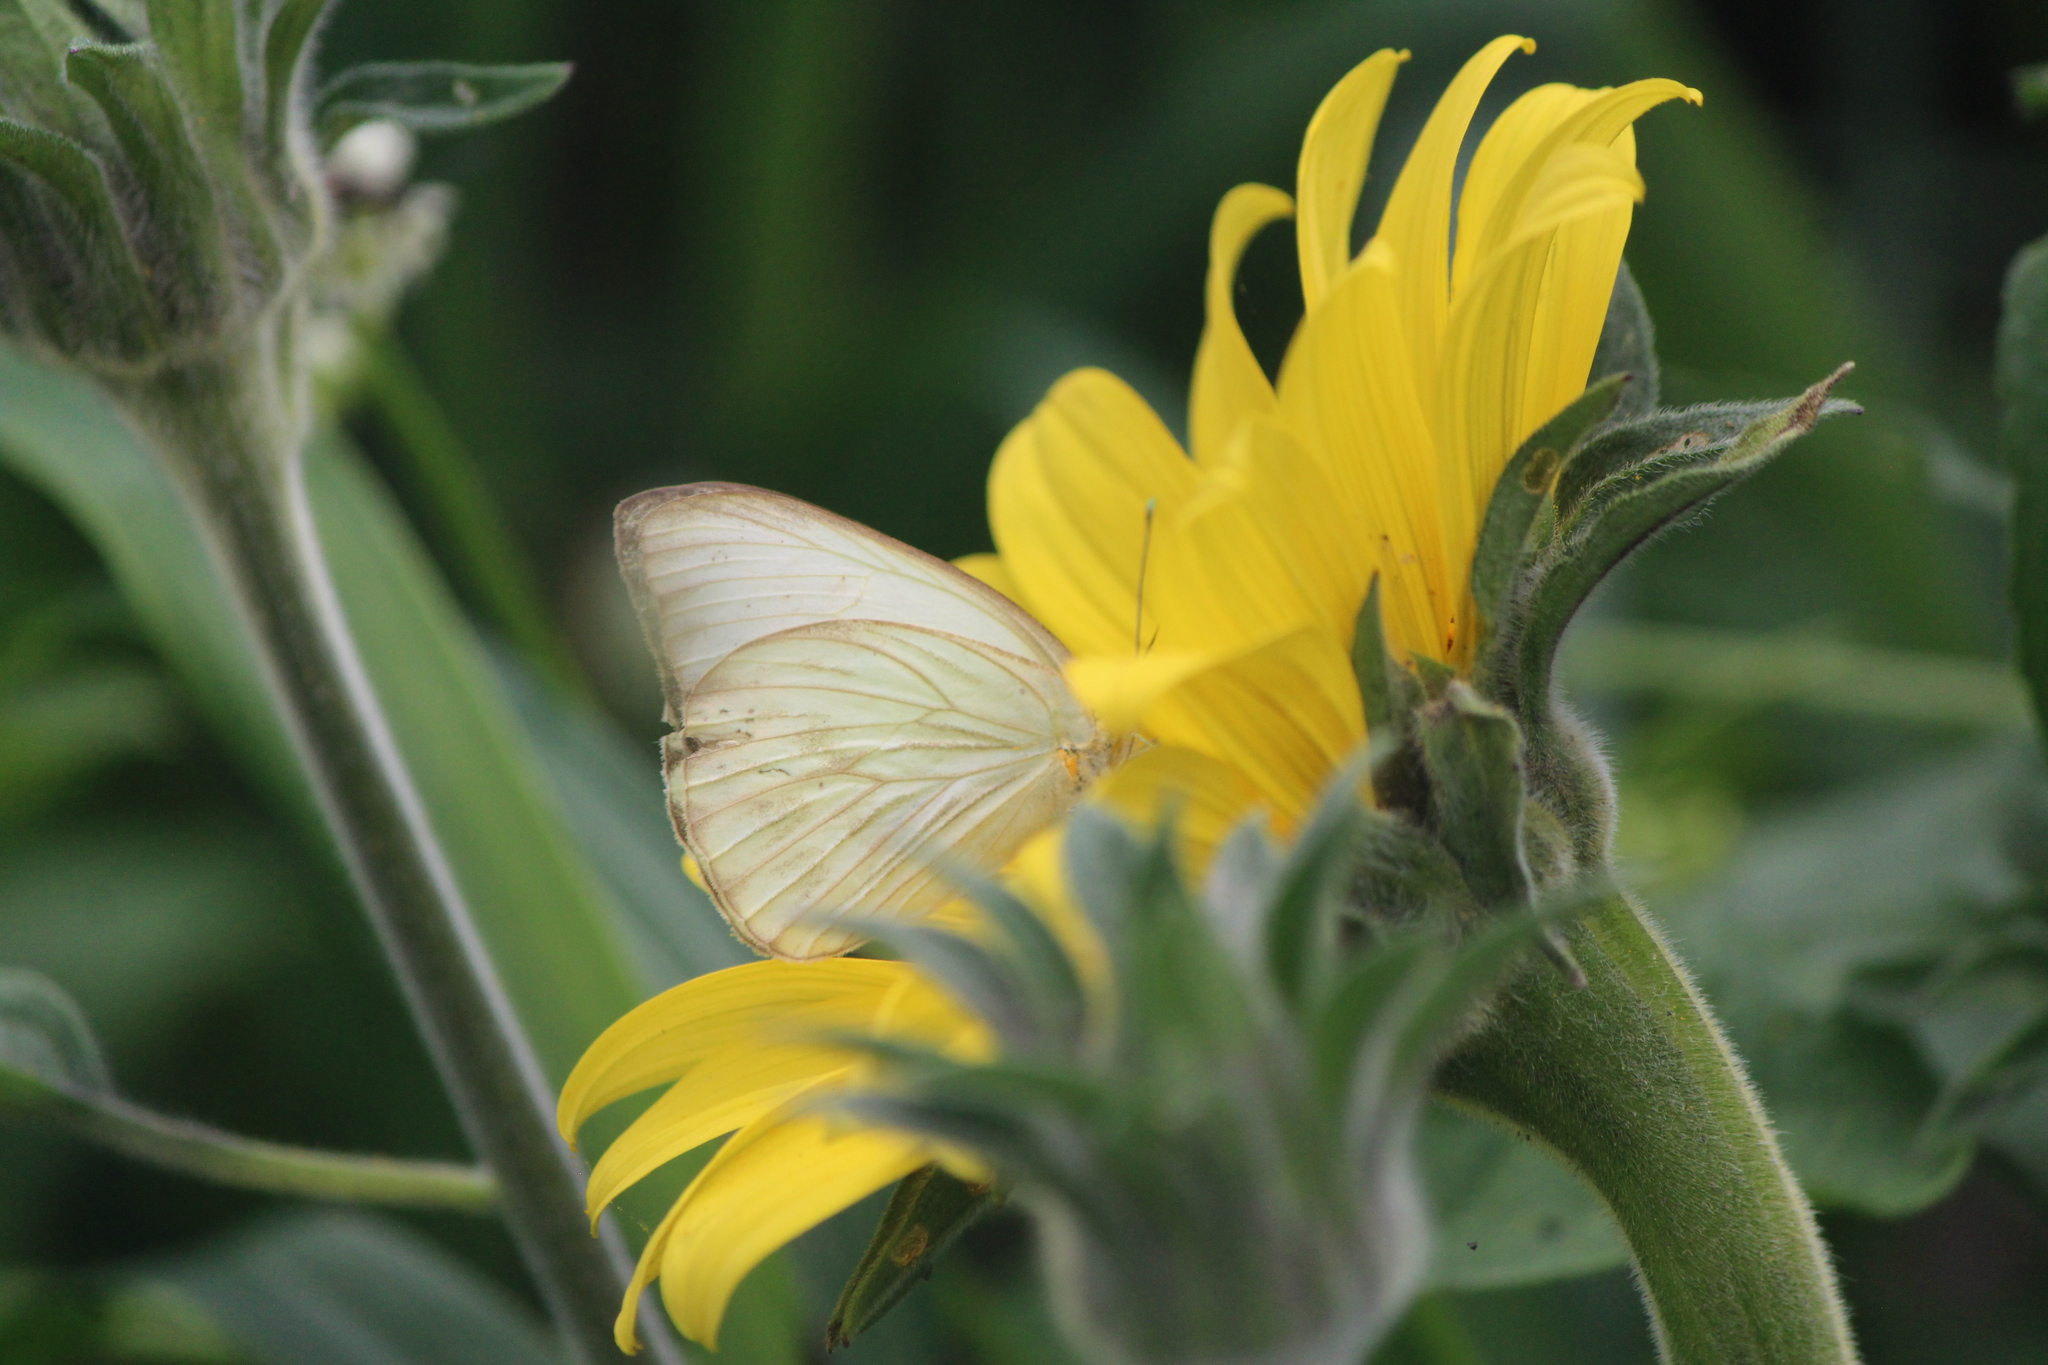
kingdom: Animalia
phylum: Arthropoda
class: Insecta
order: Lepidoptera
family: Pieridae
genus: Ascia
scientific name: Ascia monuste
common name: Great southern white
